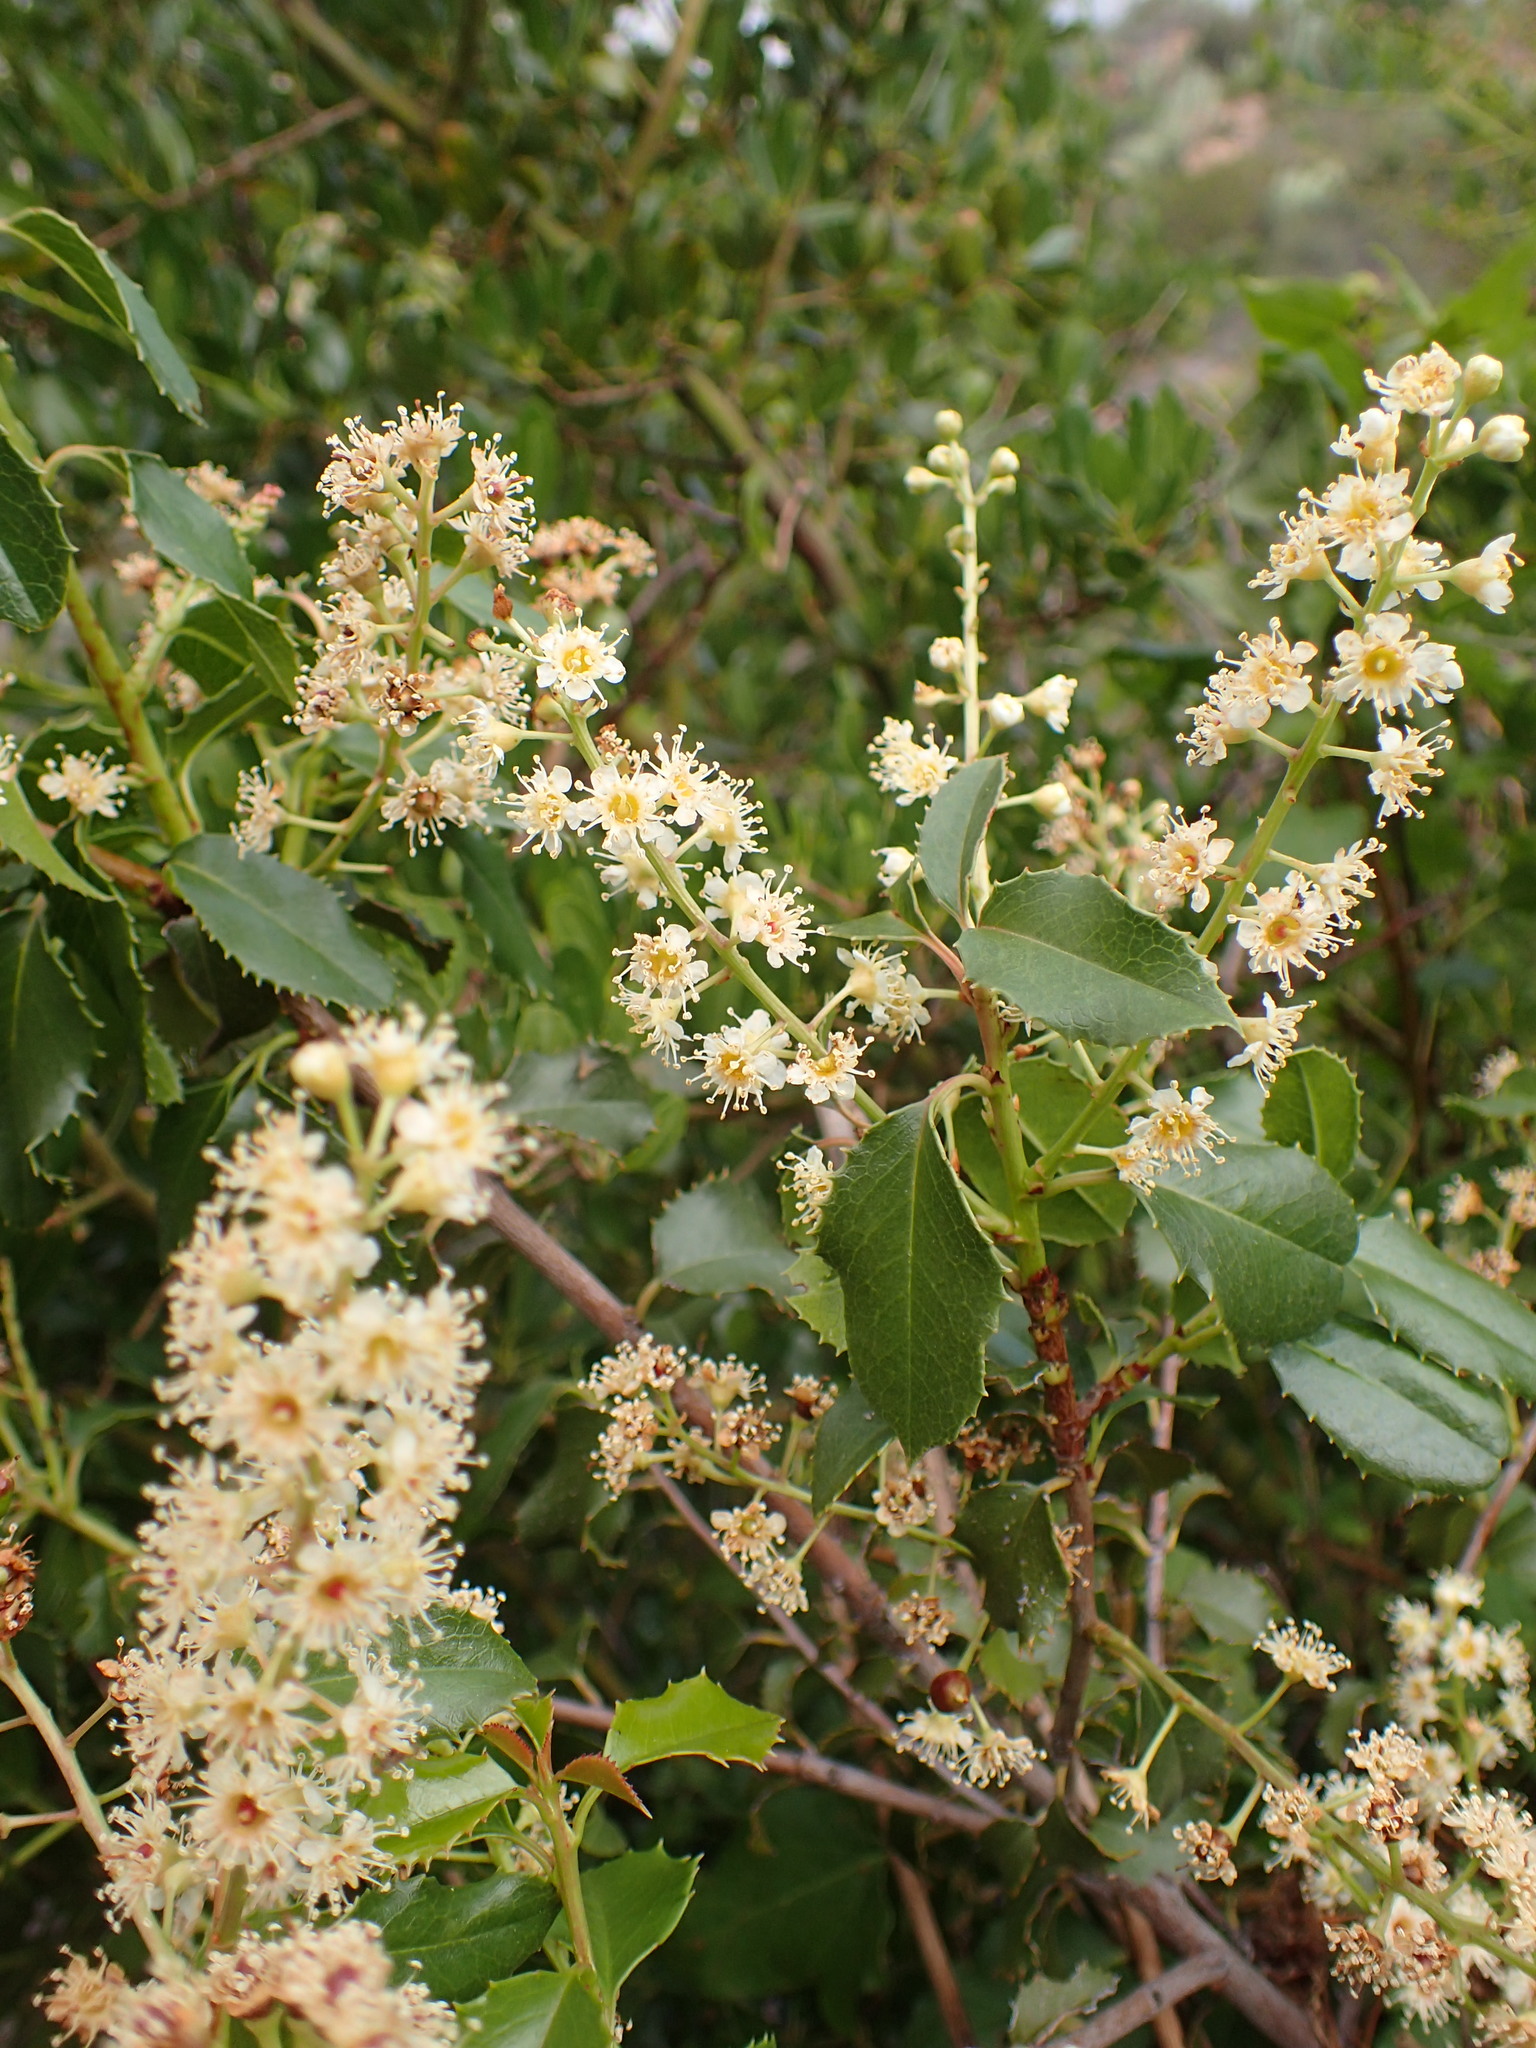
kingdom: Plantae
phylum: Tracheophyta
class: Magnoliopsida
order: Rosales
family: Rosaceae
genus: Prunus
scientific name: Prunus ilicifolia
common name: Hollyleaf cherry
